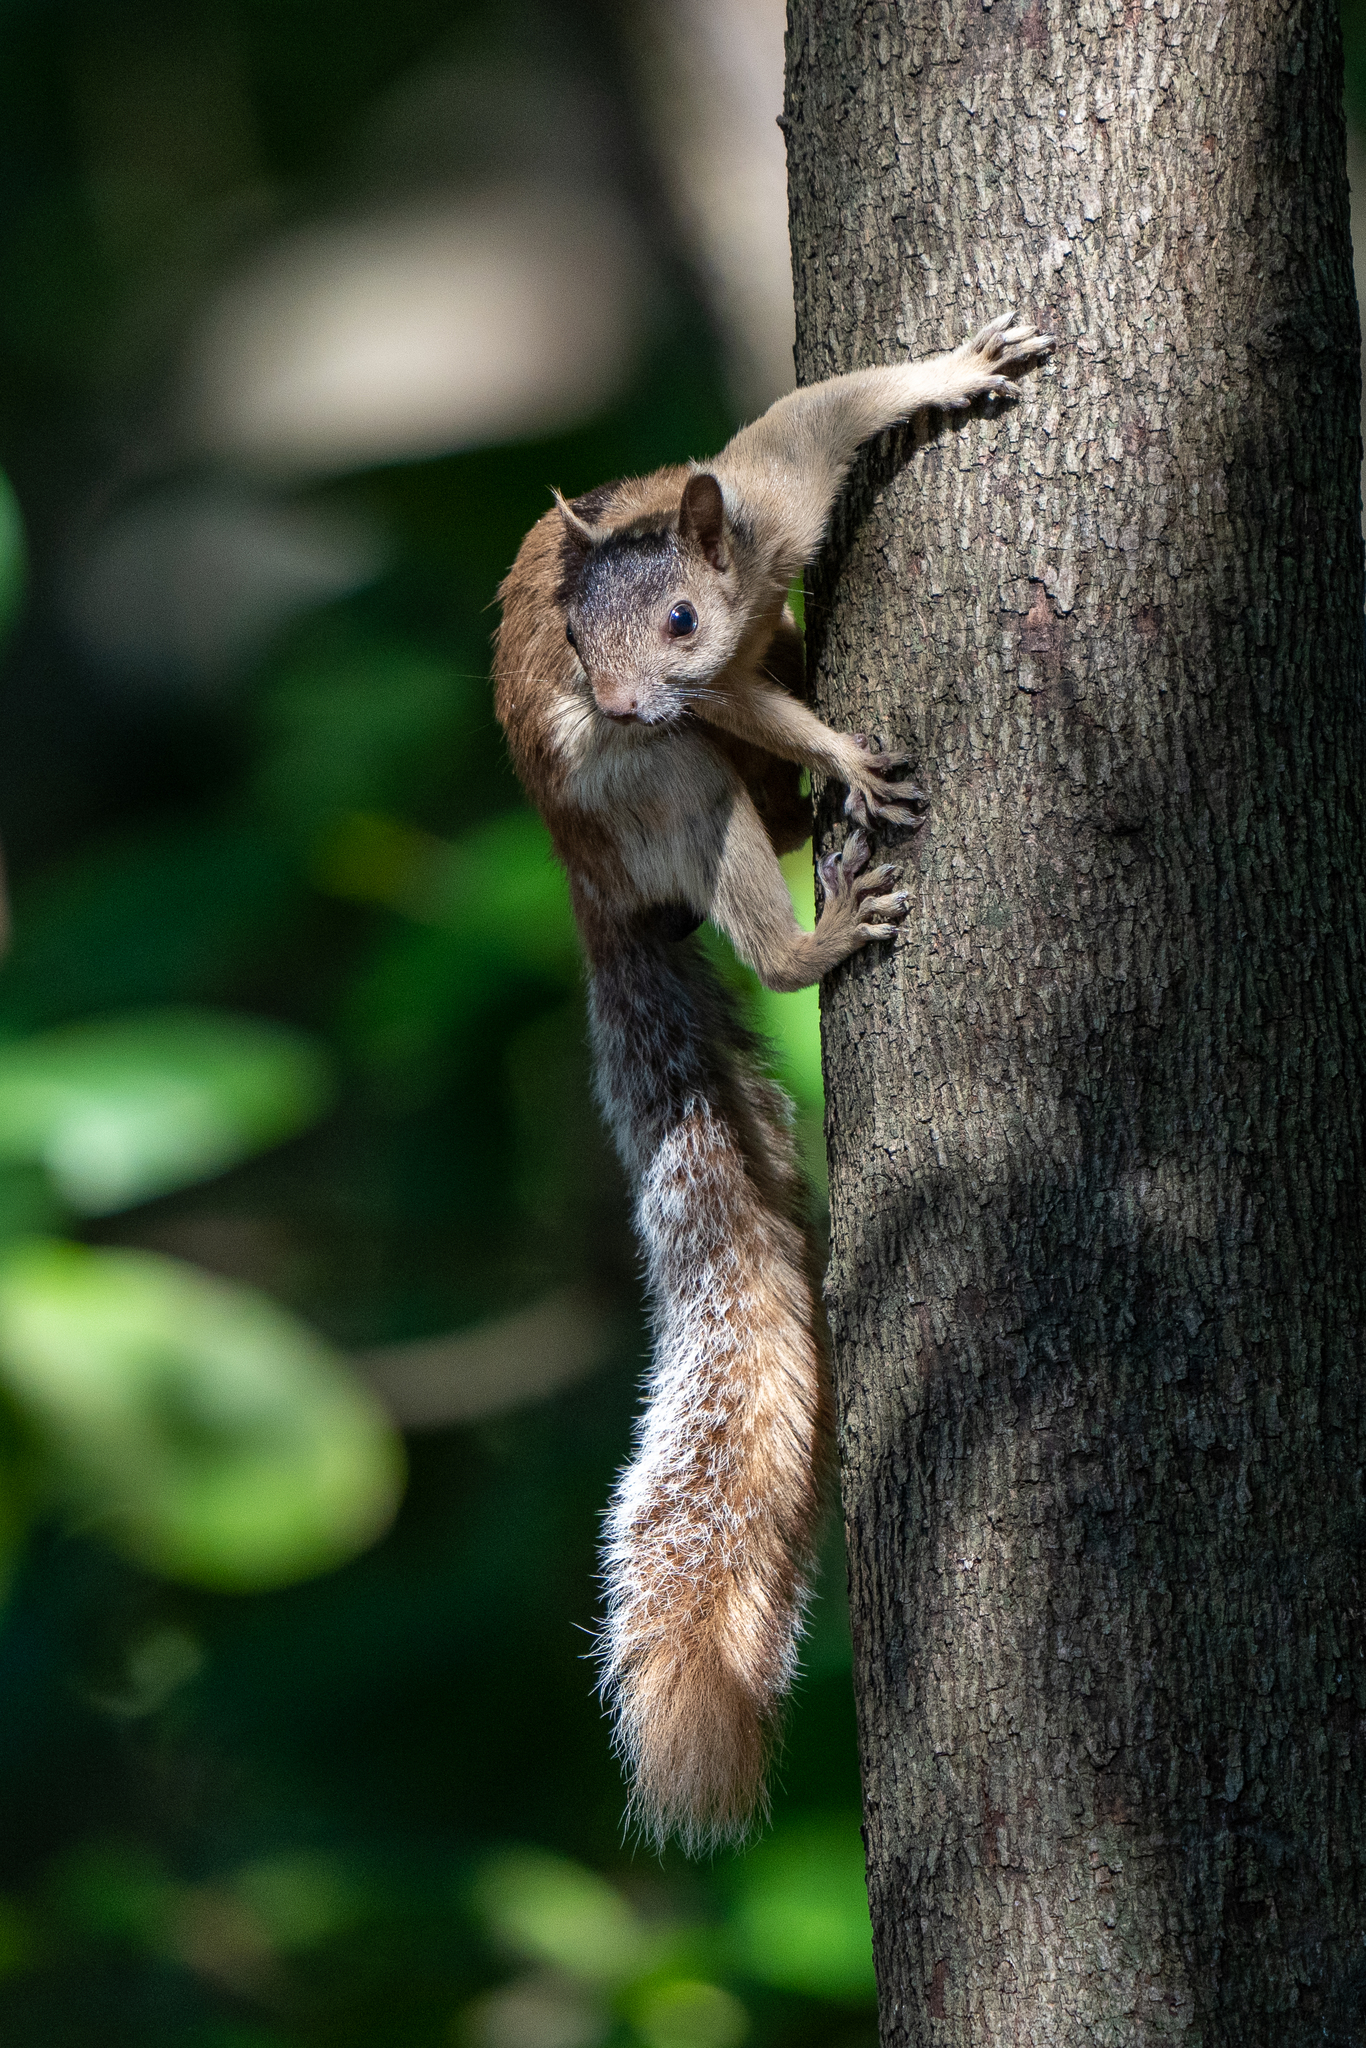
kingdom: Animalia
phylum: Chordata
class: Mammalia
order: Rodentia
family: Sciuridae
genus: Sciurus
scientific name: Sciurus variegatoides
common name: Variegated squirrel
